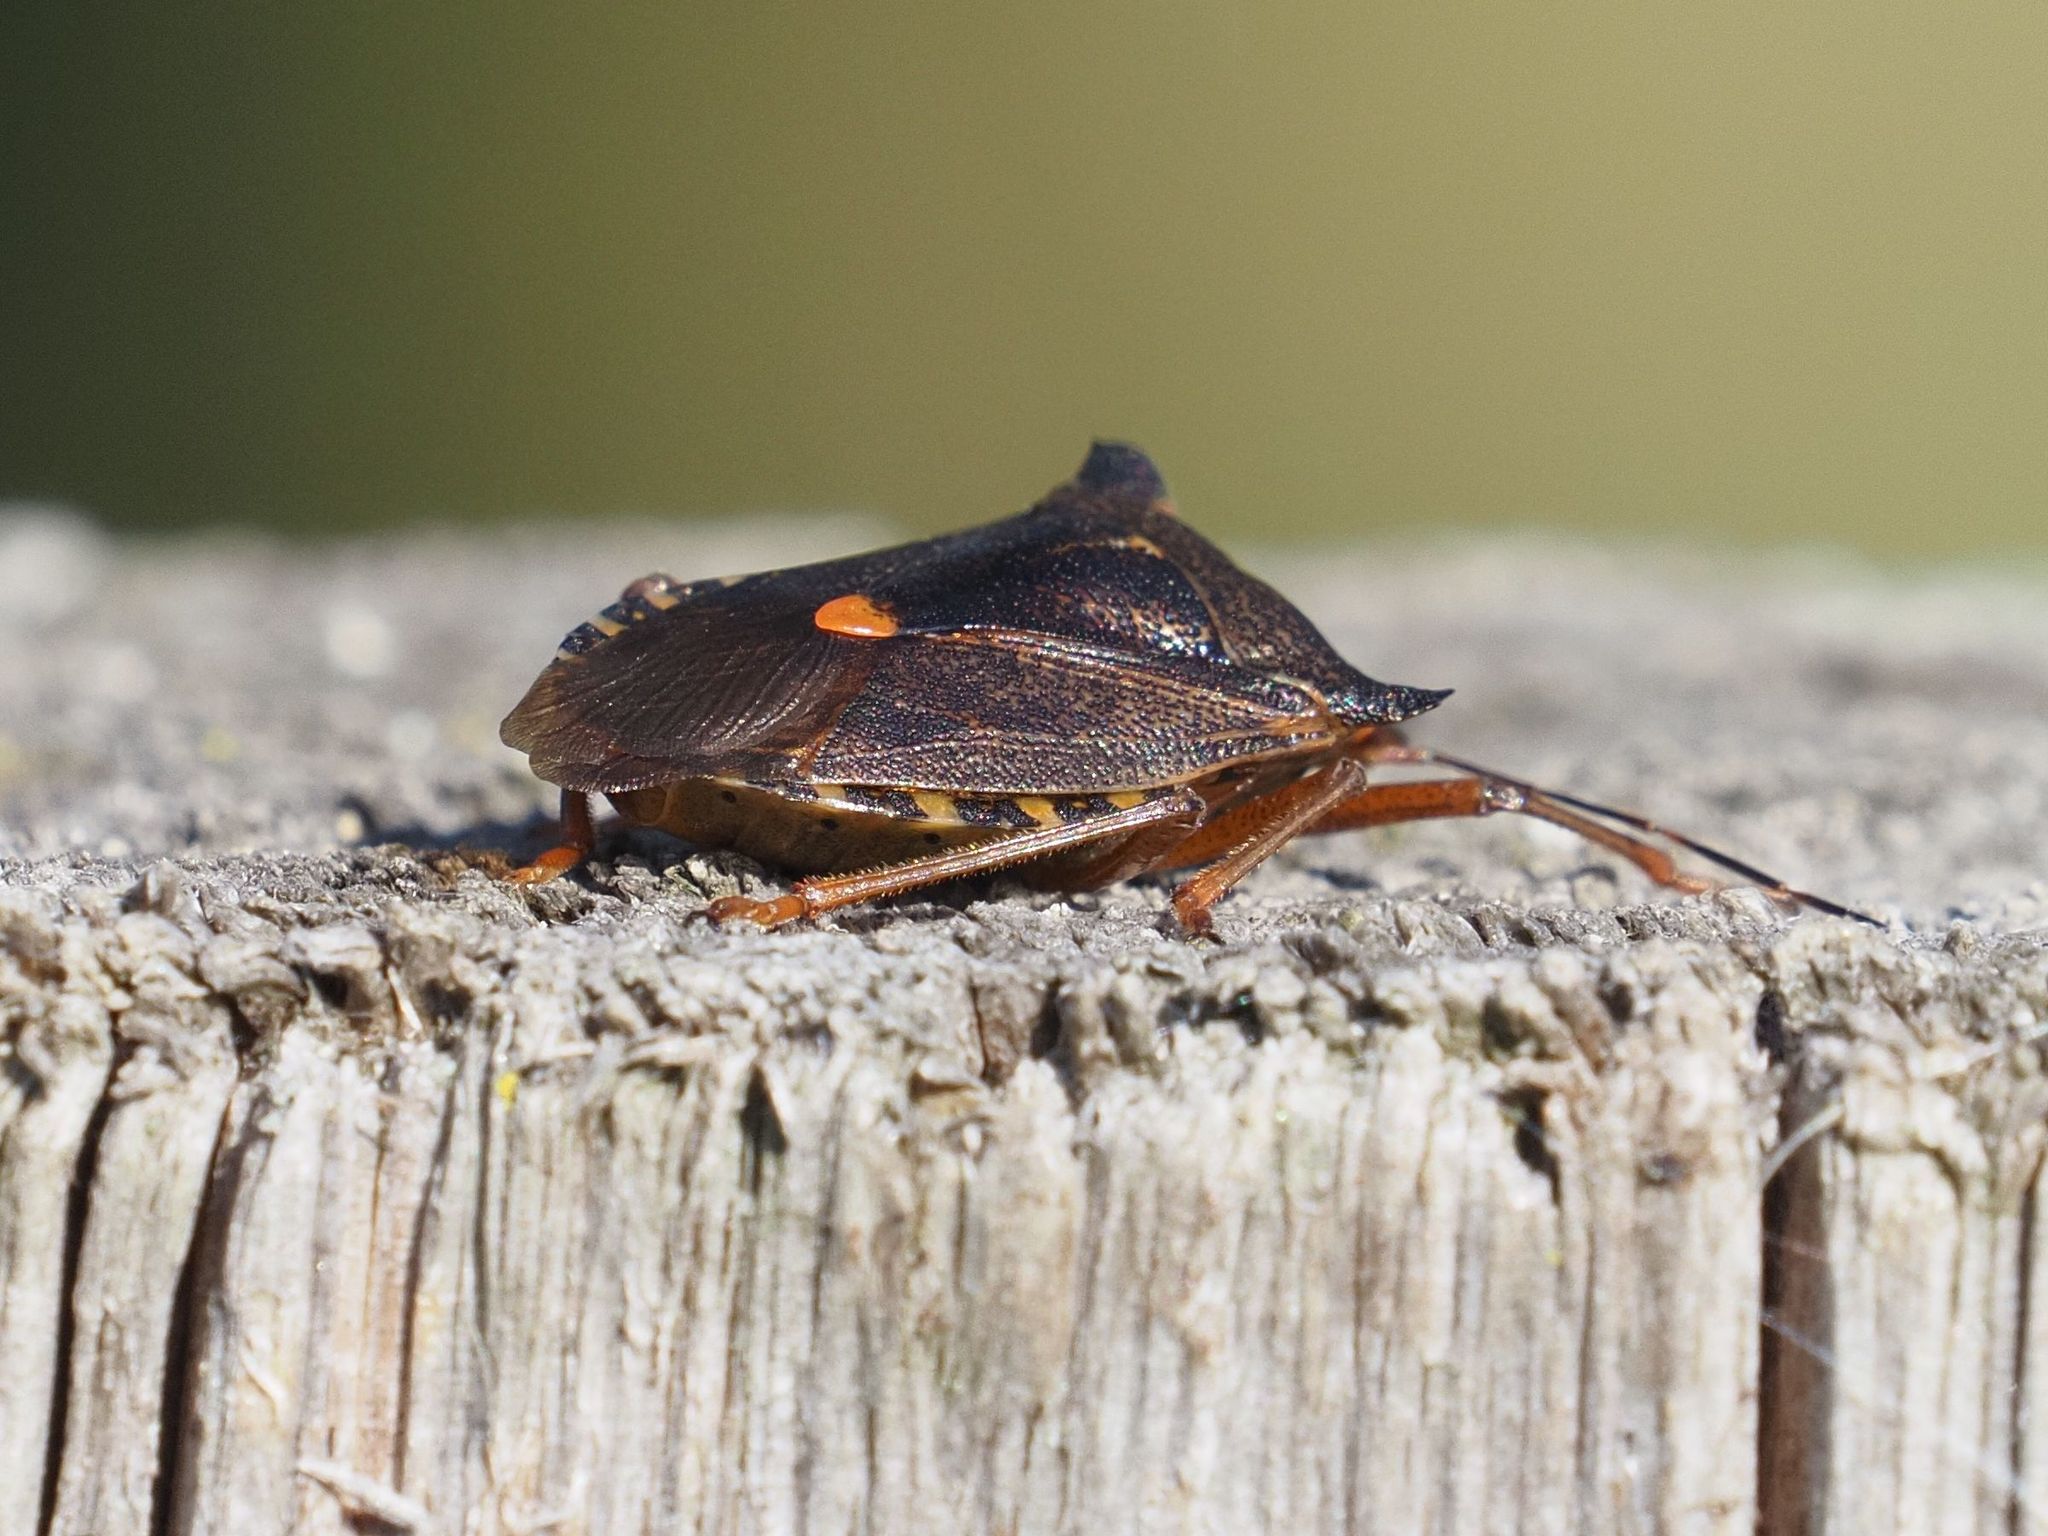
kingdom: Animalia
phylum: Arthropoda
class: Insecta
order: Hemiptera
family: Pentatomidae
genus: Pentatoma
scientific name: Pentatoma rufipes
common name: Forest bug
